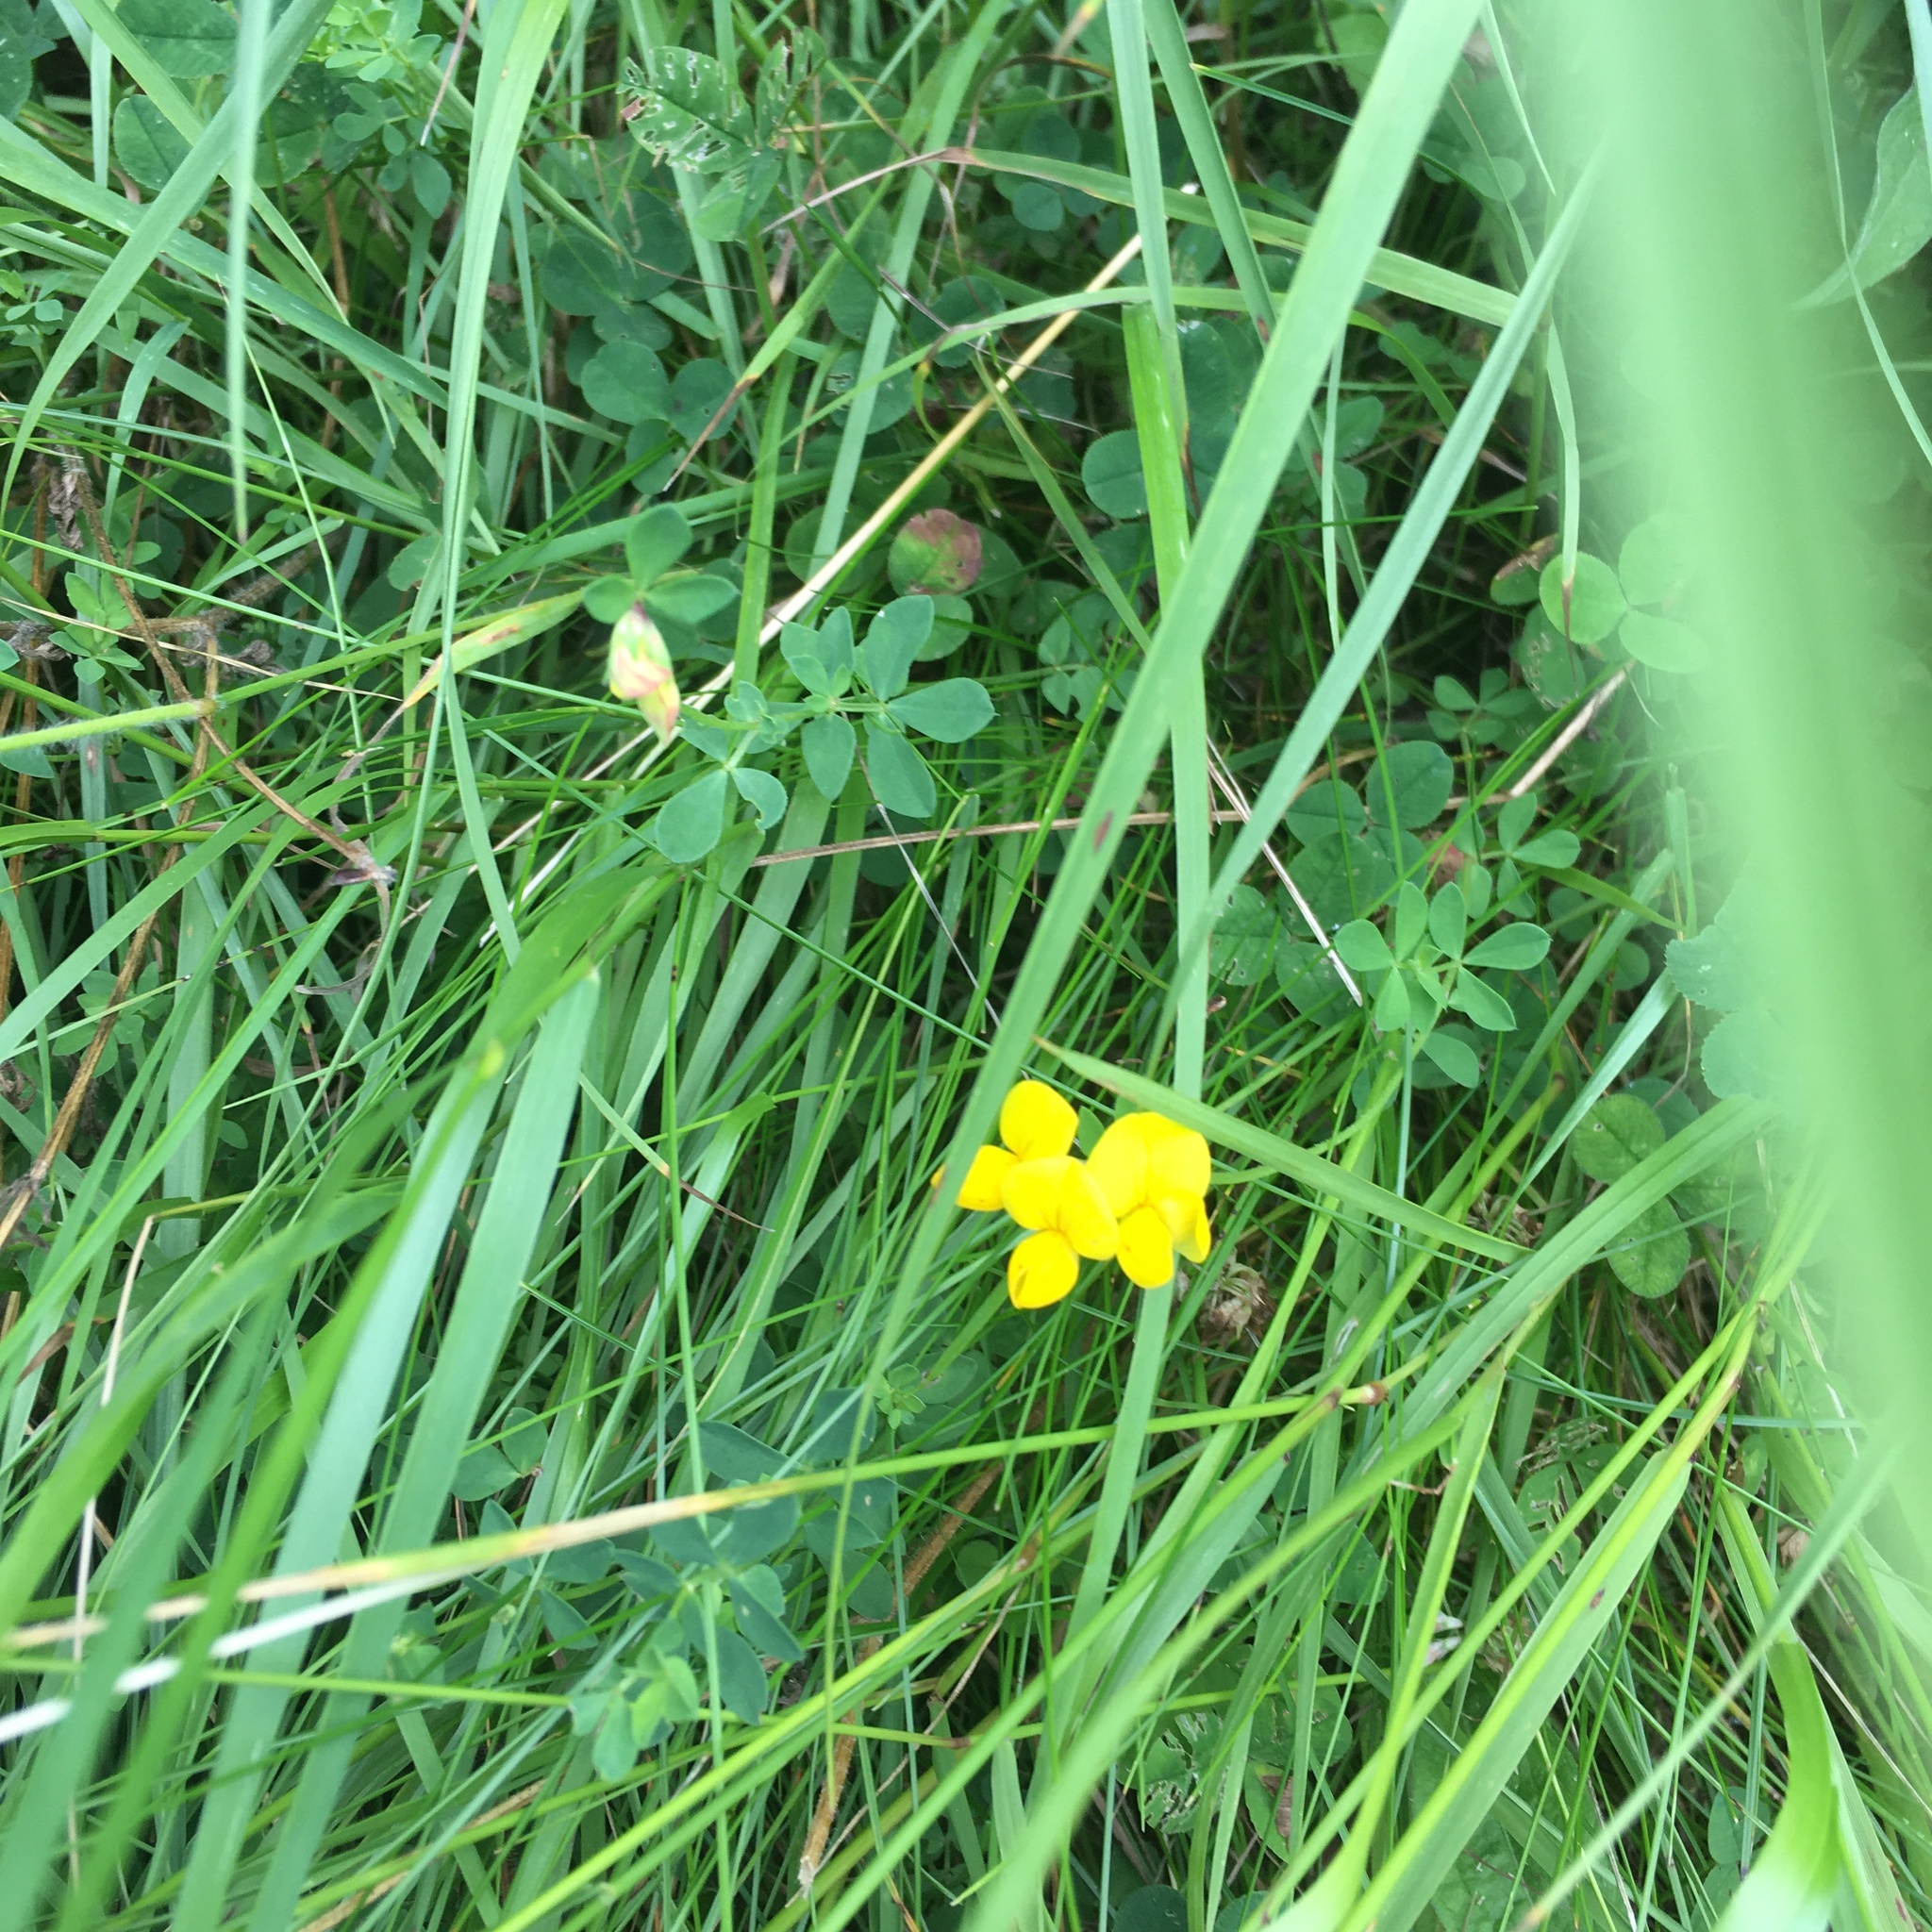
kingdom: Plantae
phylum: Tracheophyta
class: Magnoliopsida
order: Fabales
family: Fabaceae
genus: Lotus
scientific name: Lotus corniculatus
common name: Common bird's-foot-trefoil
